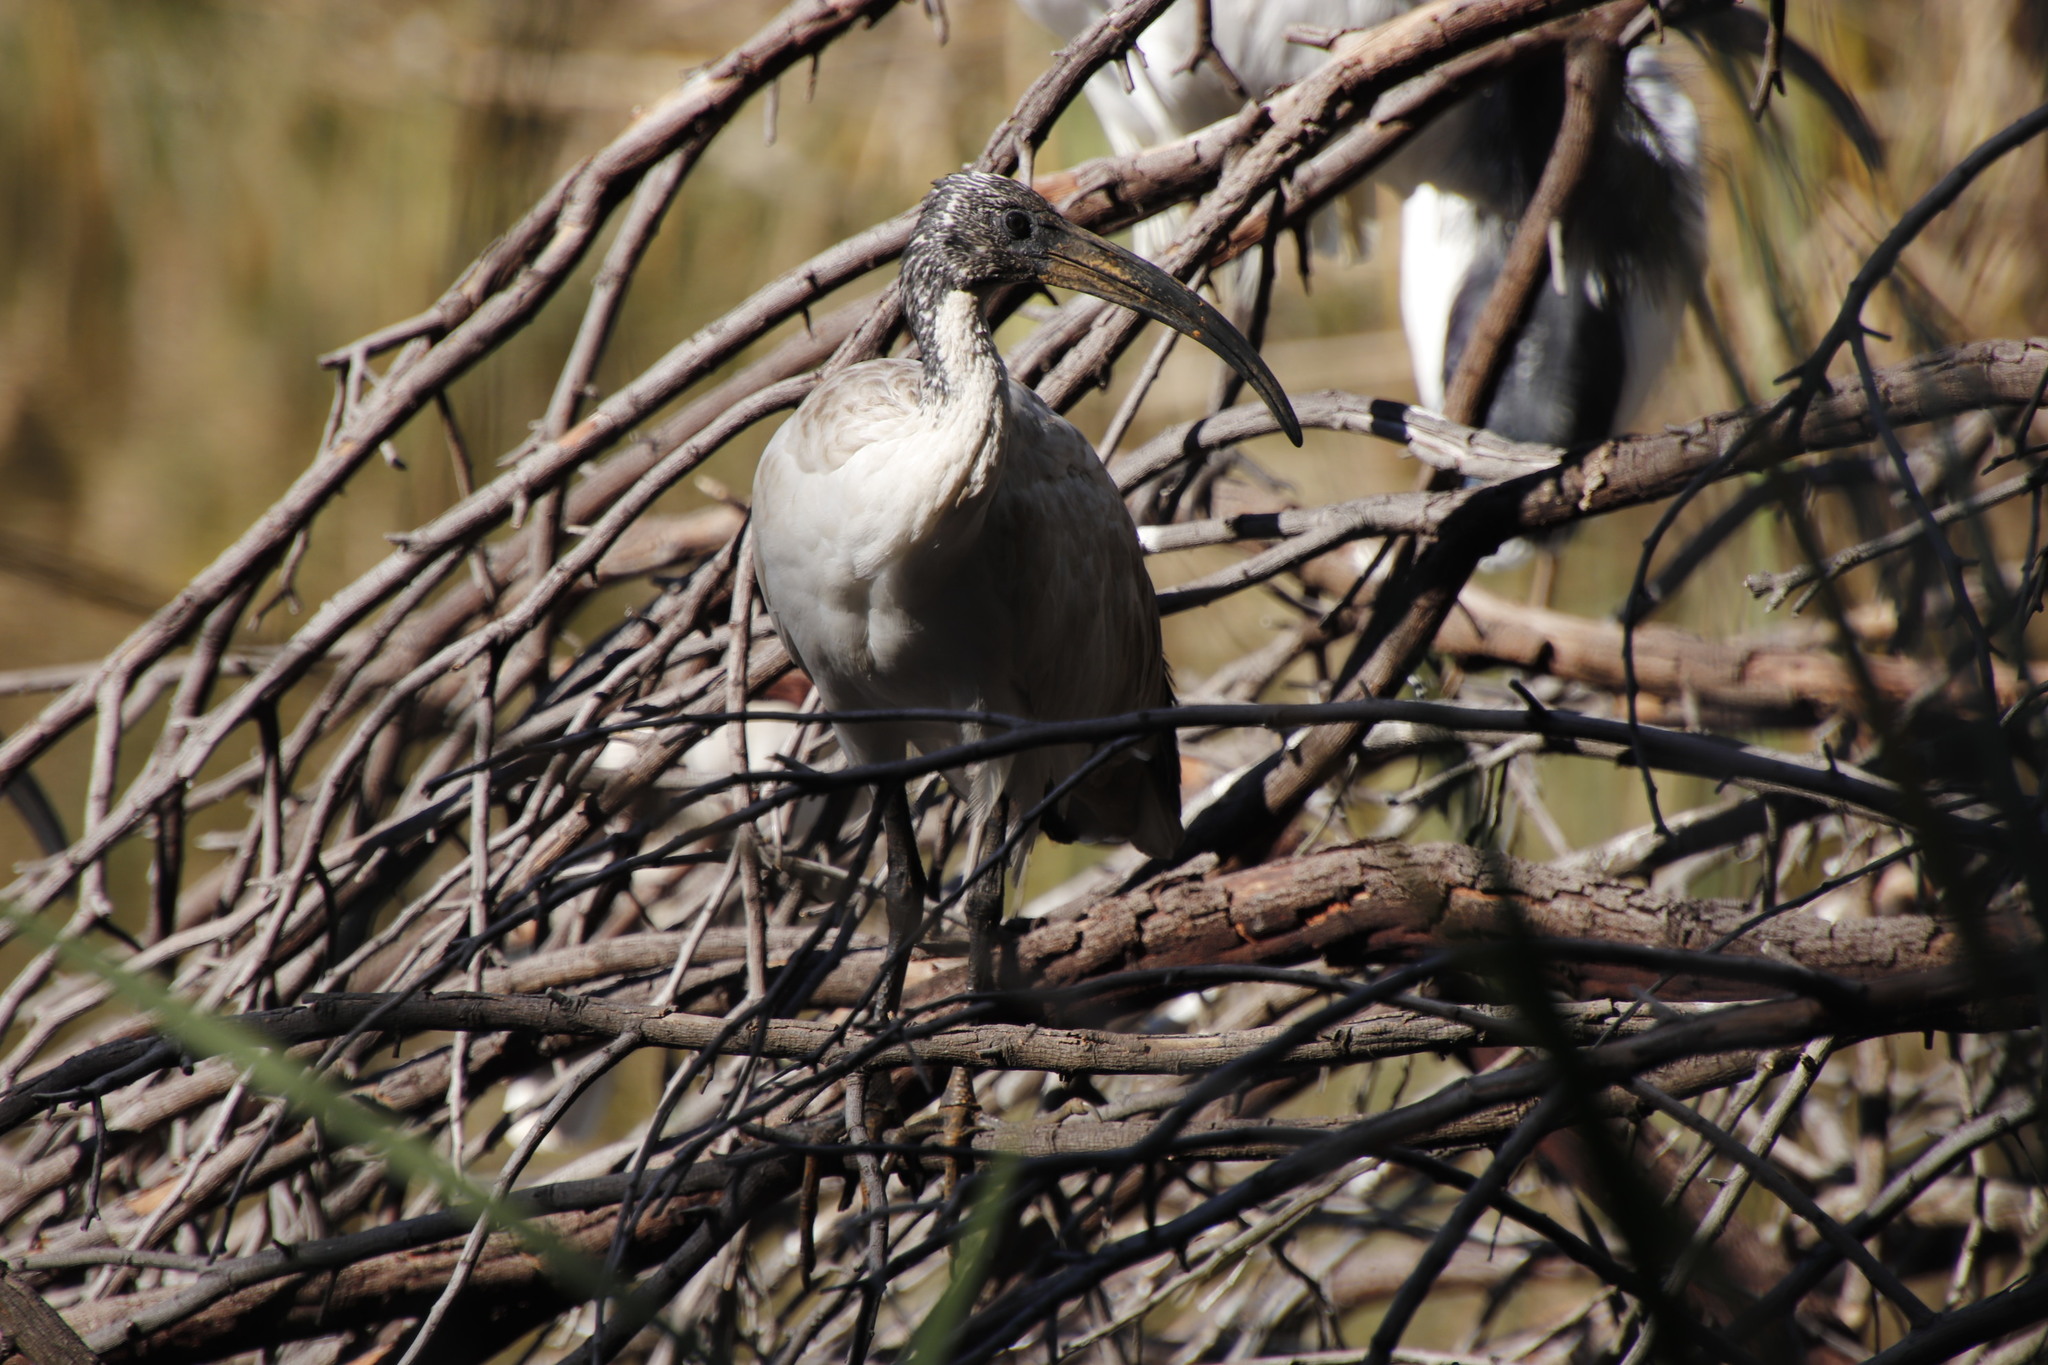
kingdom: Animalia
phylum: Chordata
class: Aves
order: Pelecaniformes
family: Threskiornithidae
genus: Threskiornis
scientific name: Threskiornis aethiopicus
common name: Sacred ibis
